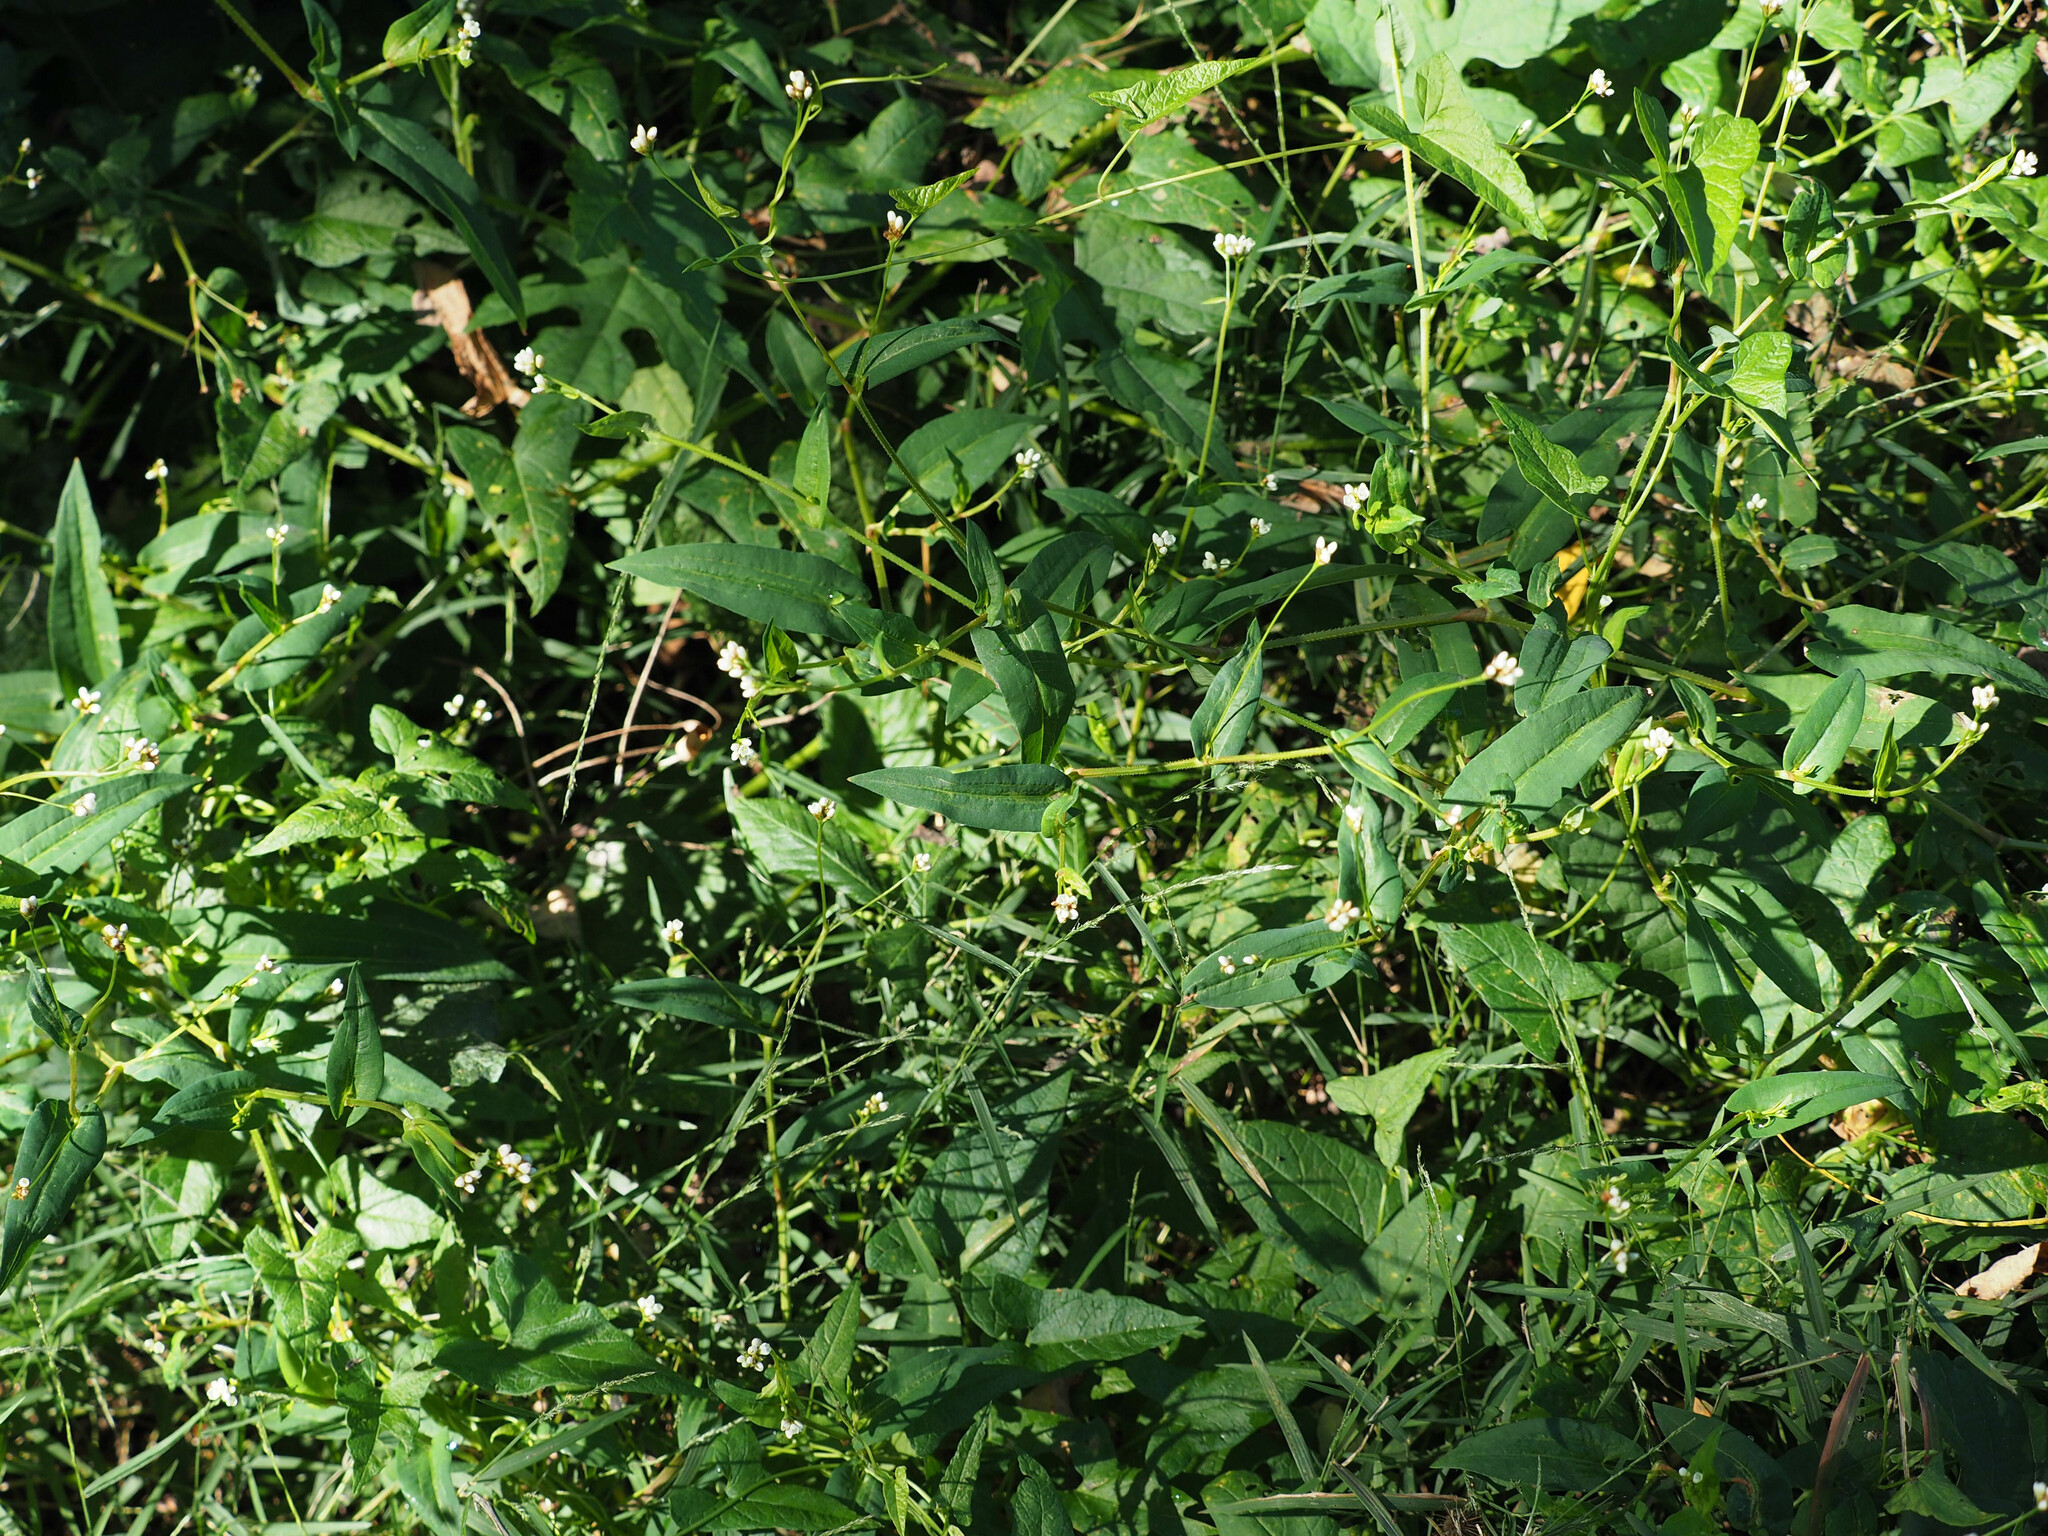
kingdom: Plantae
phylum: Tracheophyta
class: Magnoliopsida
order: Caryophyllales
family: Polygonaceae
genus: Persicaria
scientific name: Persicaria sagittata
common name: American tearthumb
